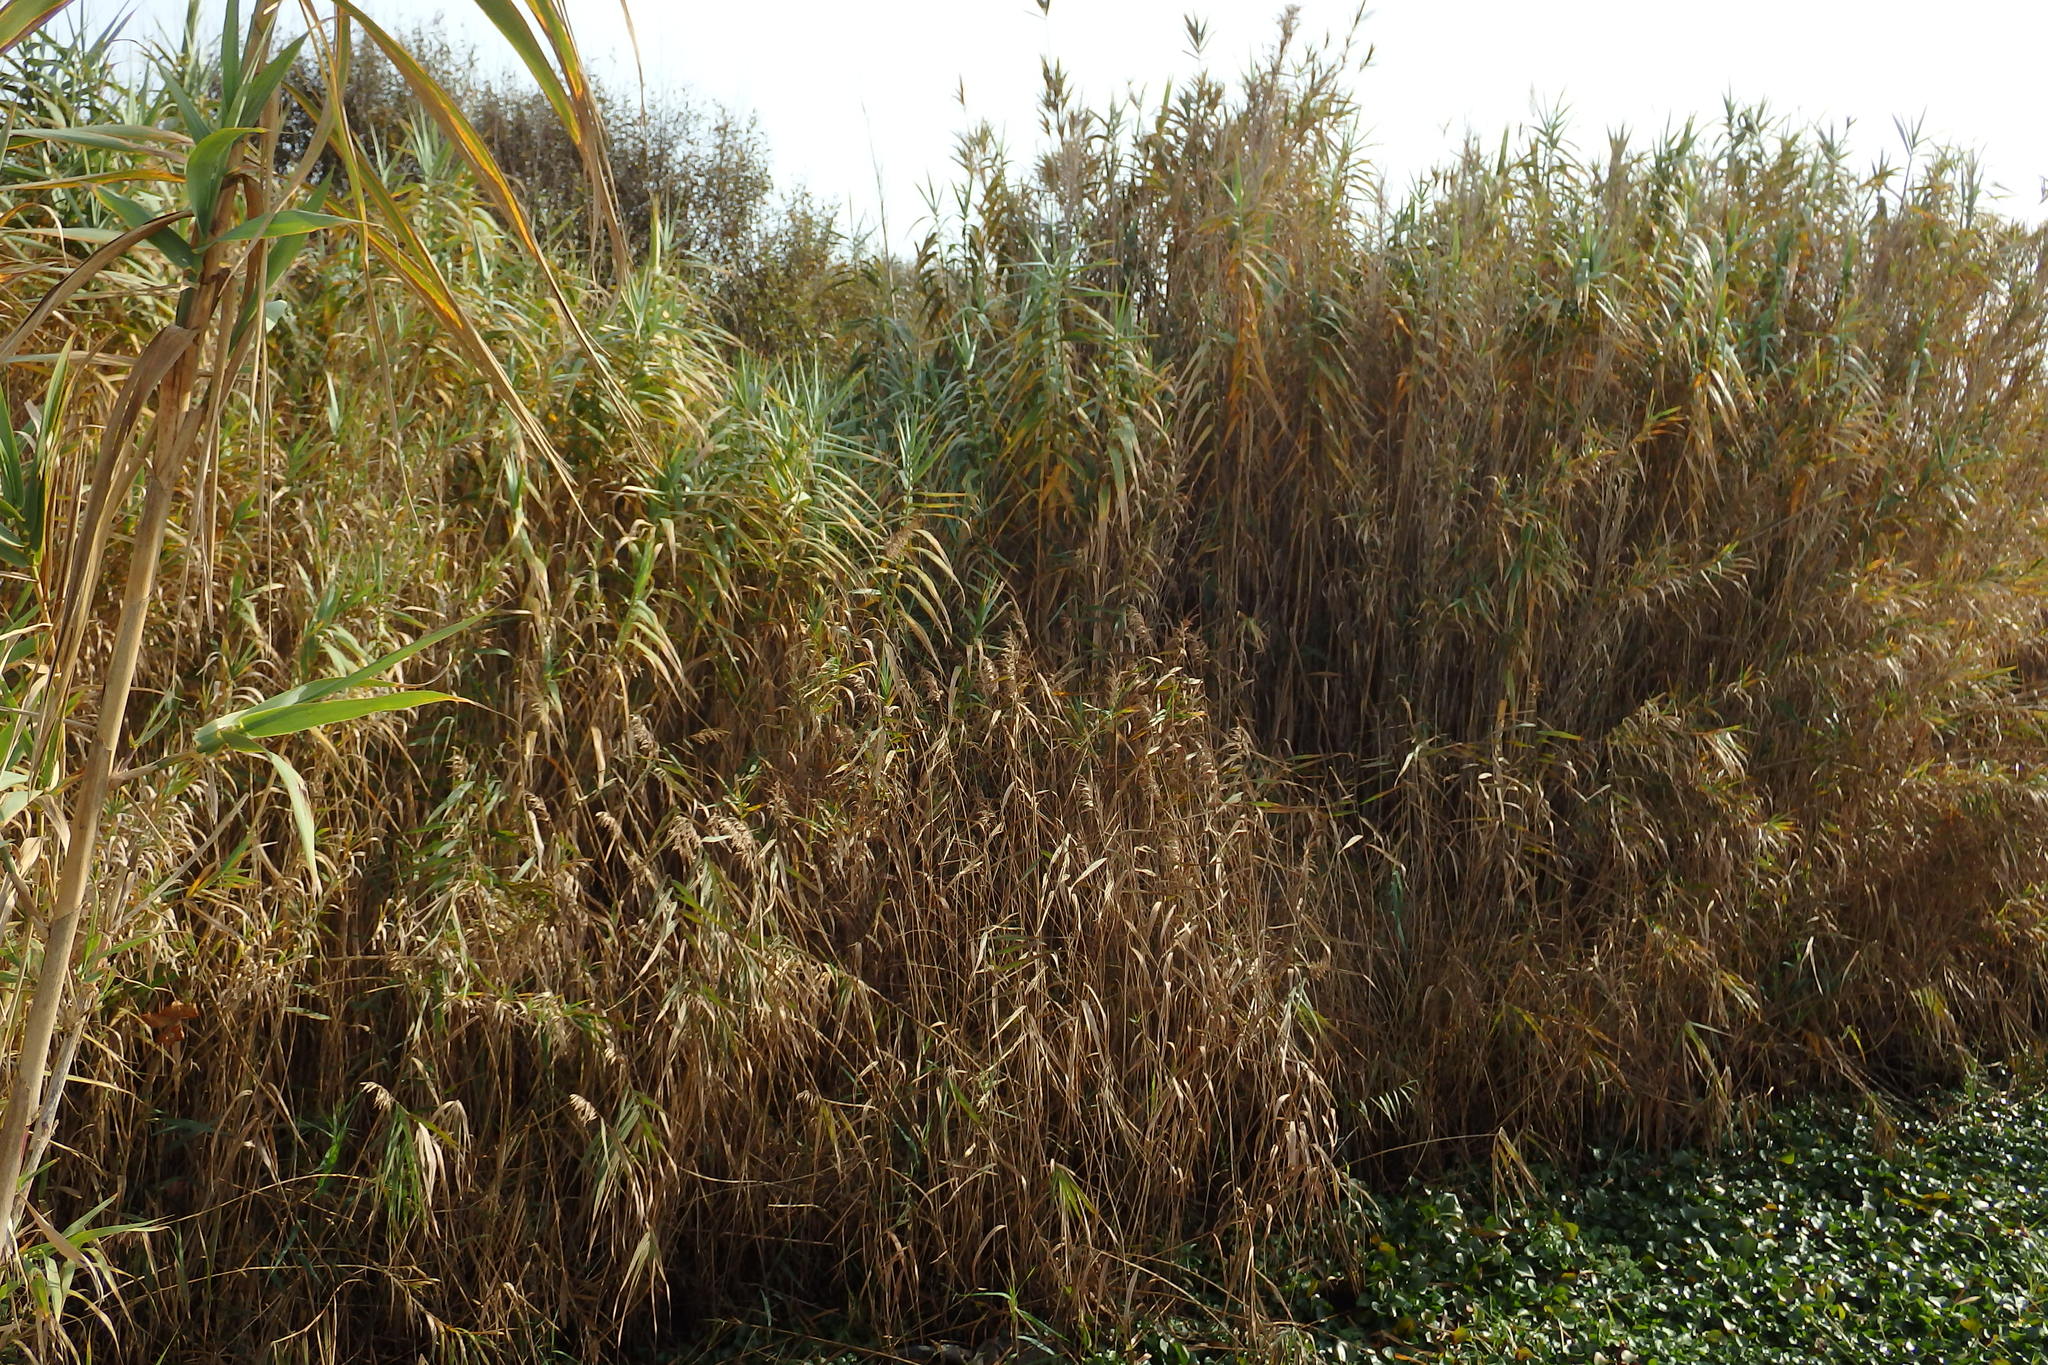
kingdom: Plantae
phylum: Tracheophyta
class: Liliopsida
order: Poales
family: Poaceae
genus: Arundo
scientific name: Arundo donax
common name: Giant reed
